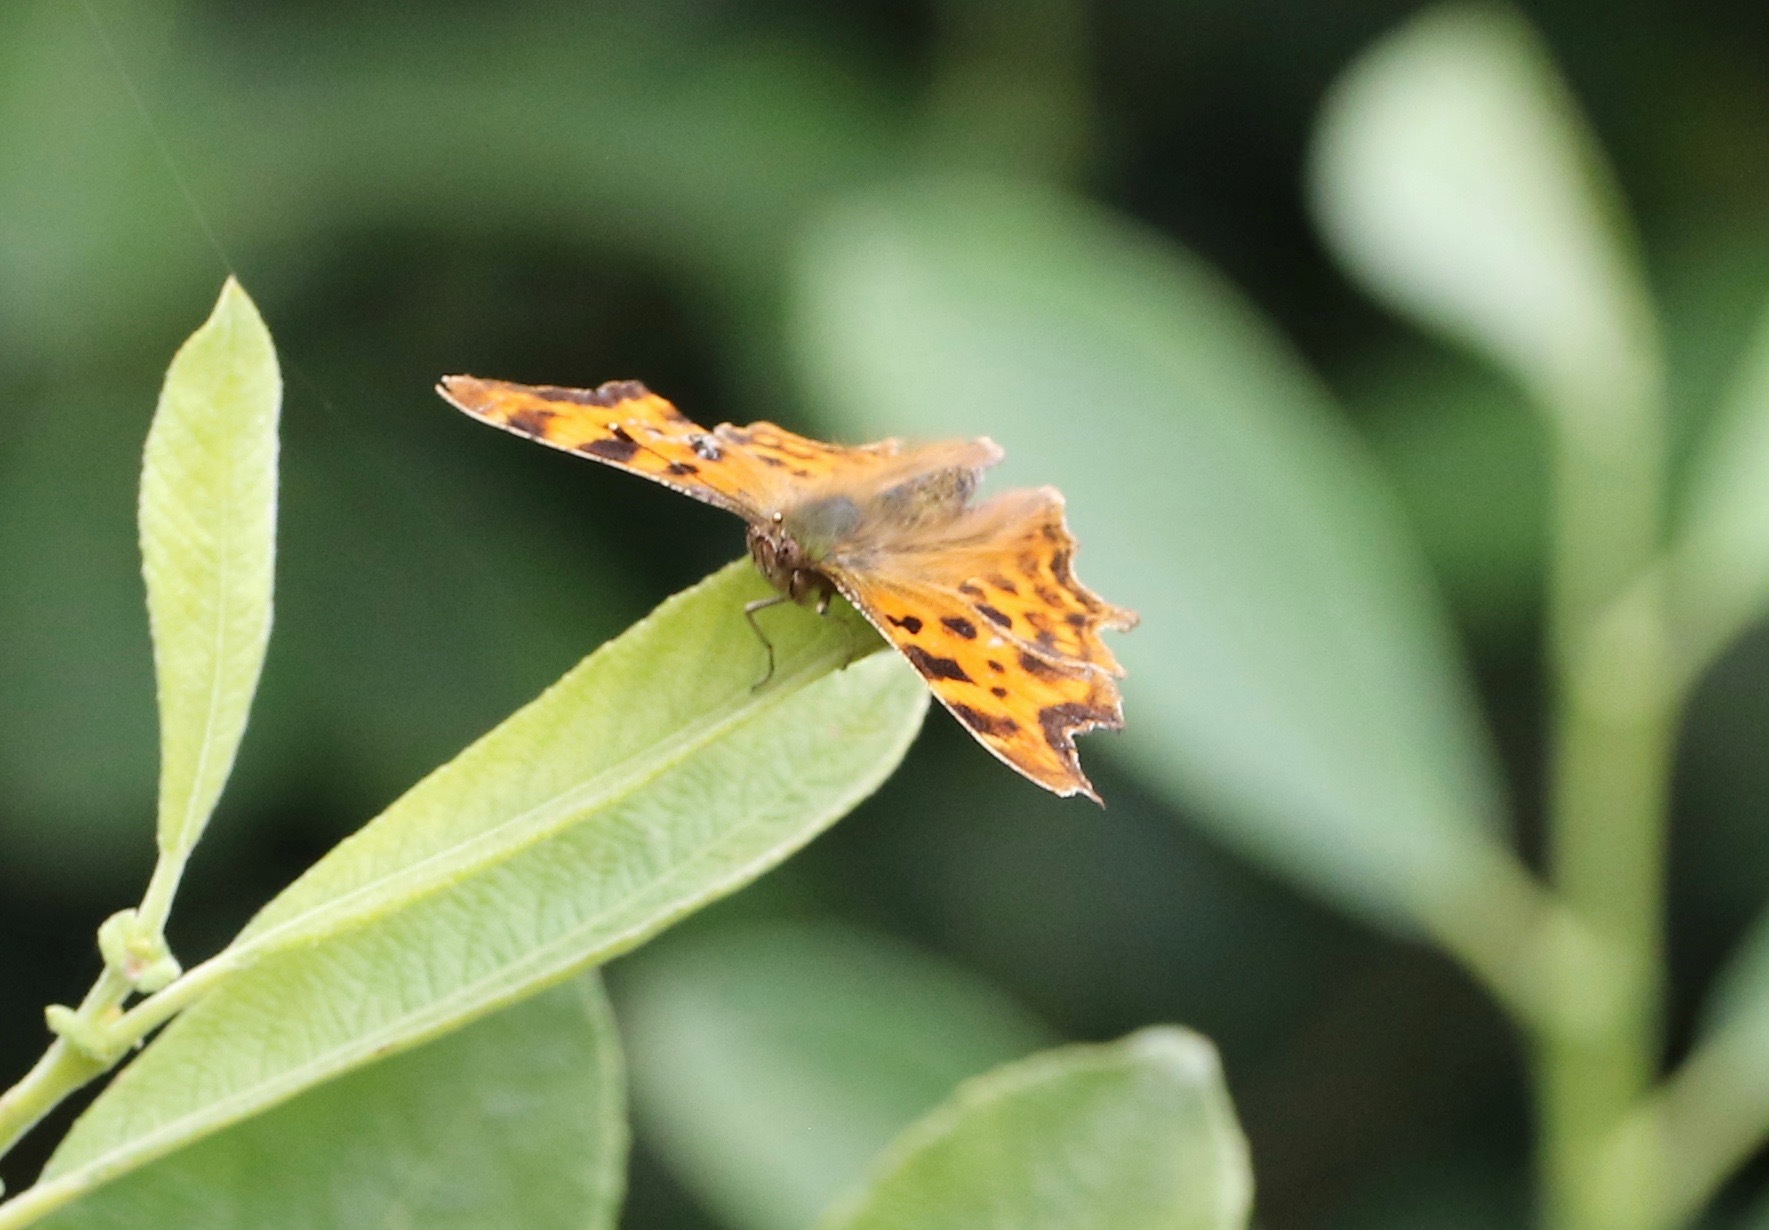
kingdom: Animalia
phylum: Arthropoda
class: Insecta
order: Lepidoptera
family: Nymphalidae
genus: Polygonia
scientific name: Polygonia c-album
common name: Comma
